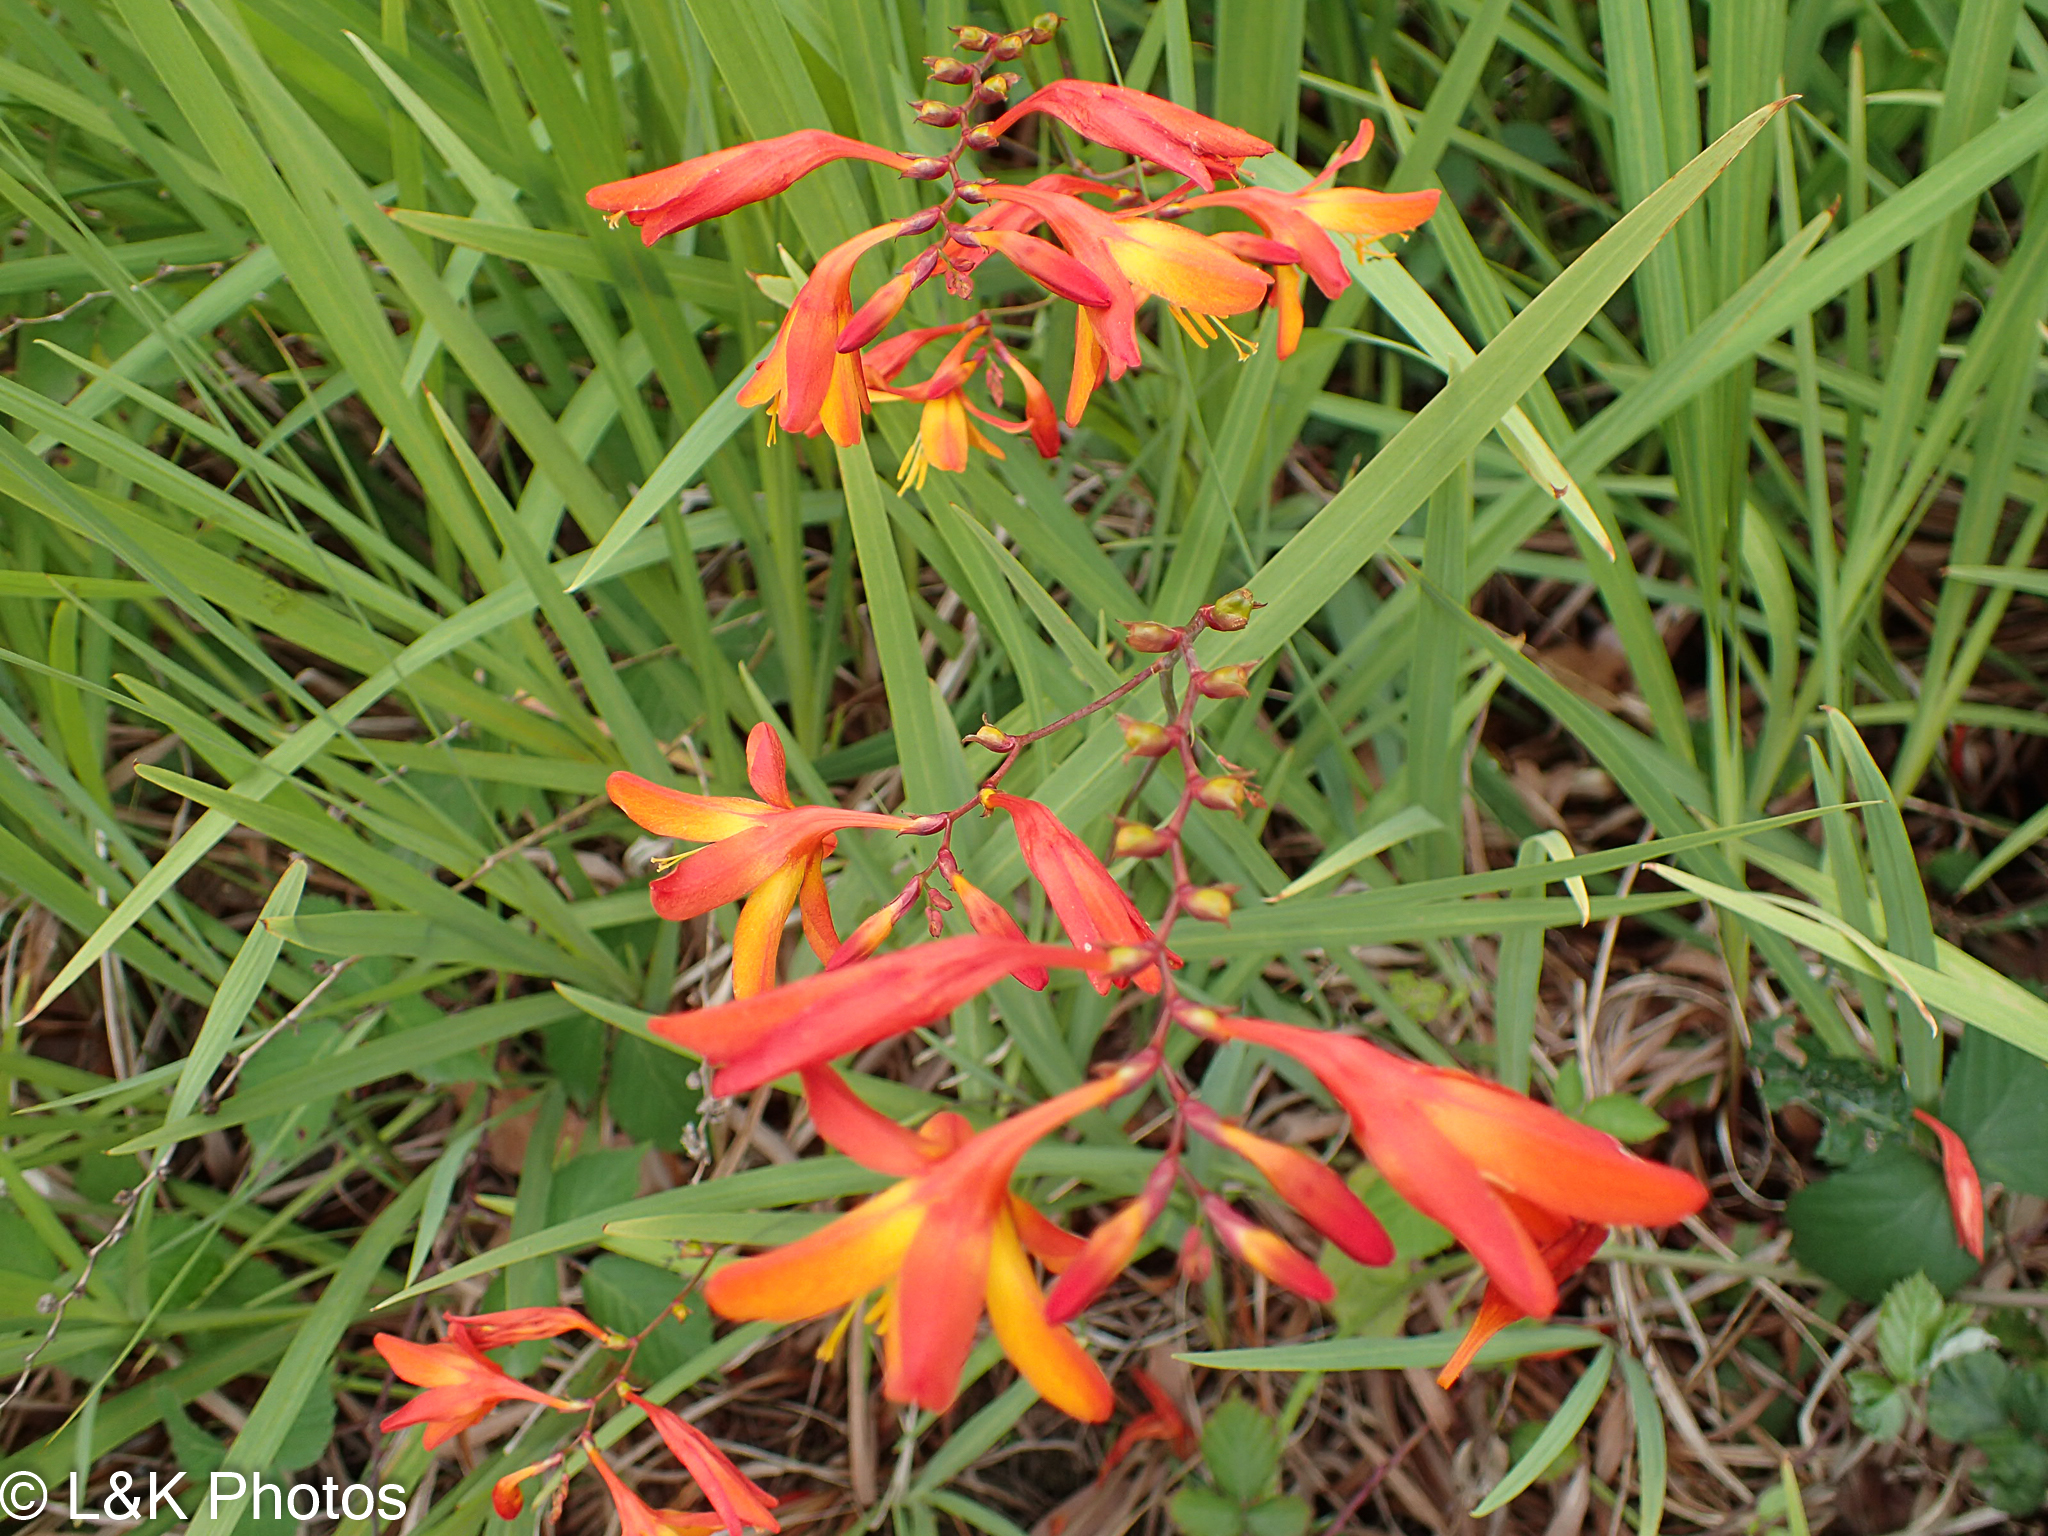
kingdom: Plantae
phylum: Tracheophyta
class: Liliopsida
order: Asparagales
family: Iridaceae
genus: Crocosmia
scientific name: Crocosmia crocosmiiflora
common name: Montbretia
